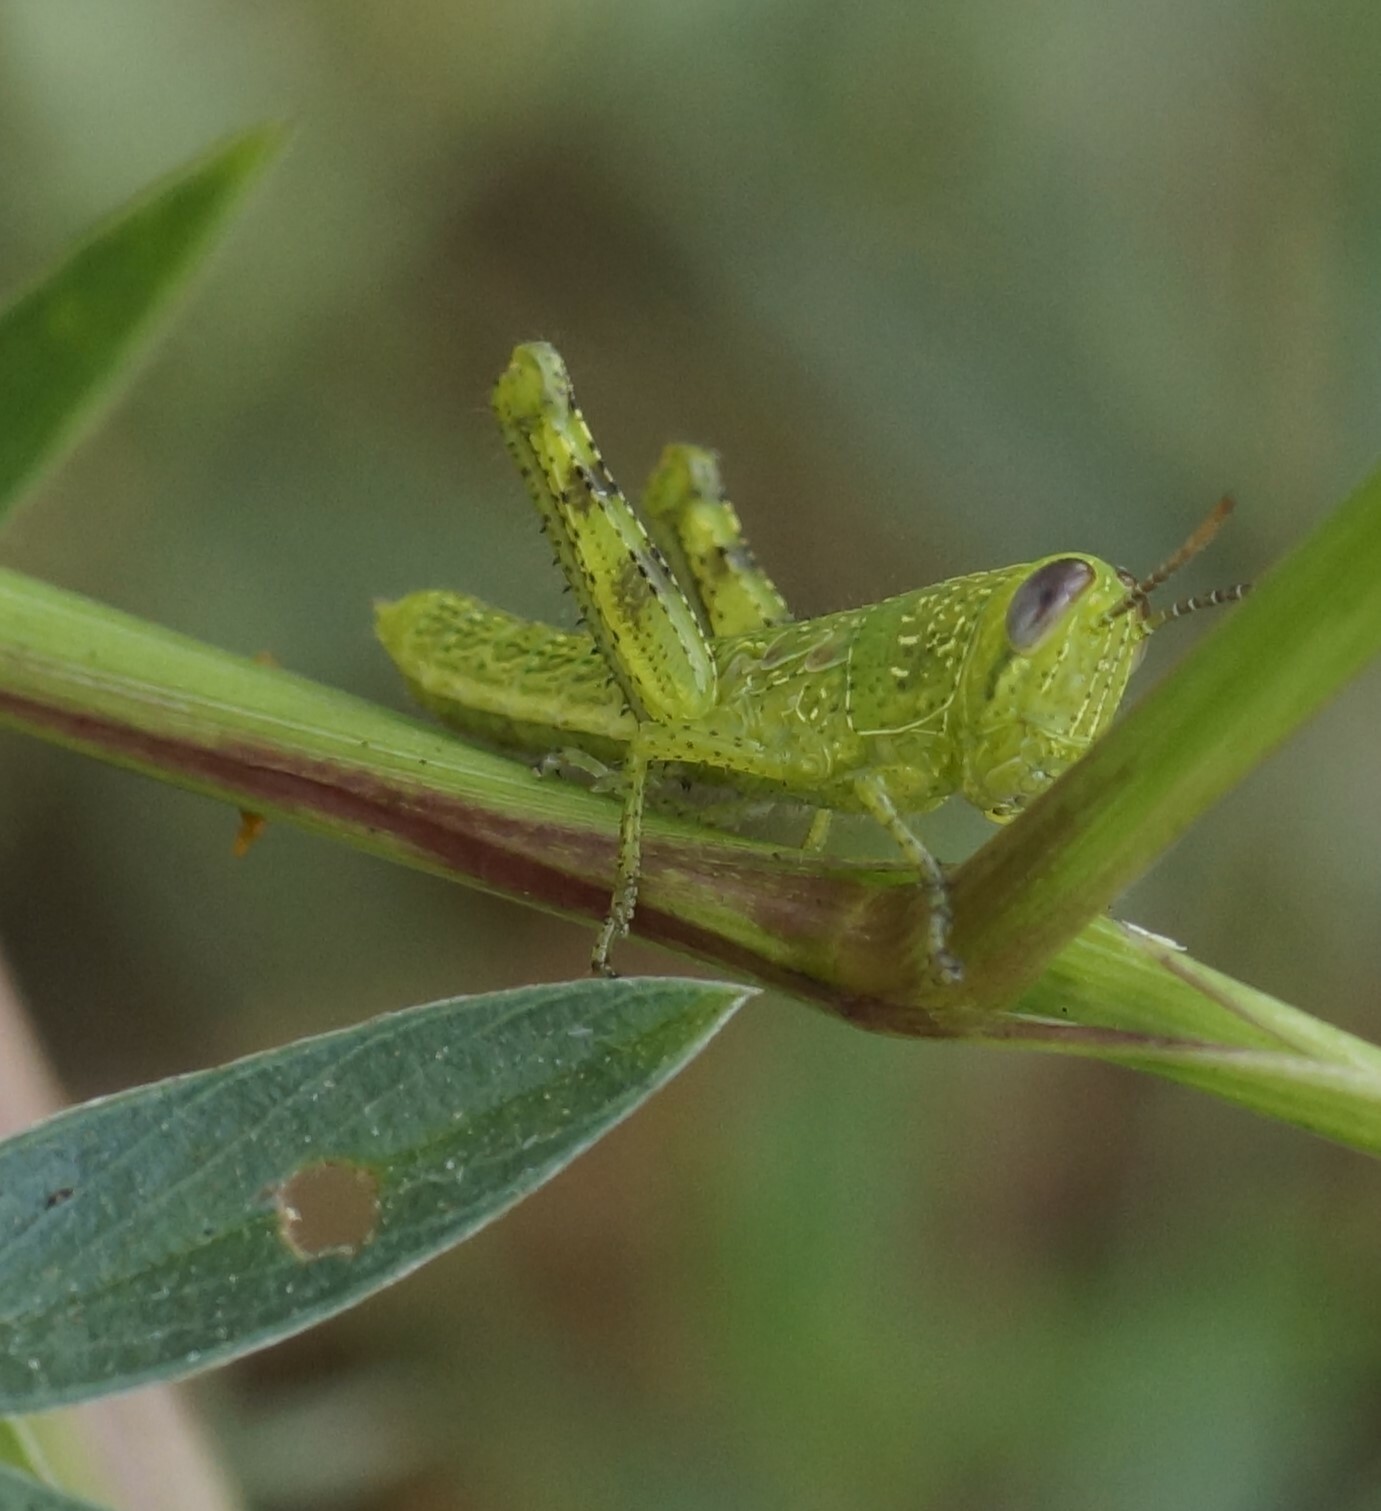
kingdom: Animalia
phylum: Arthropoda
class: Insecta
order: Orthoptera
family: Acrididae
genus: Valanga
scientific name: Valanga irregularis
